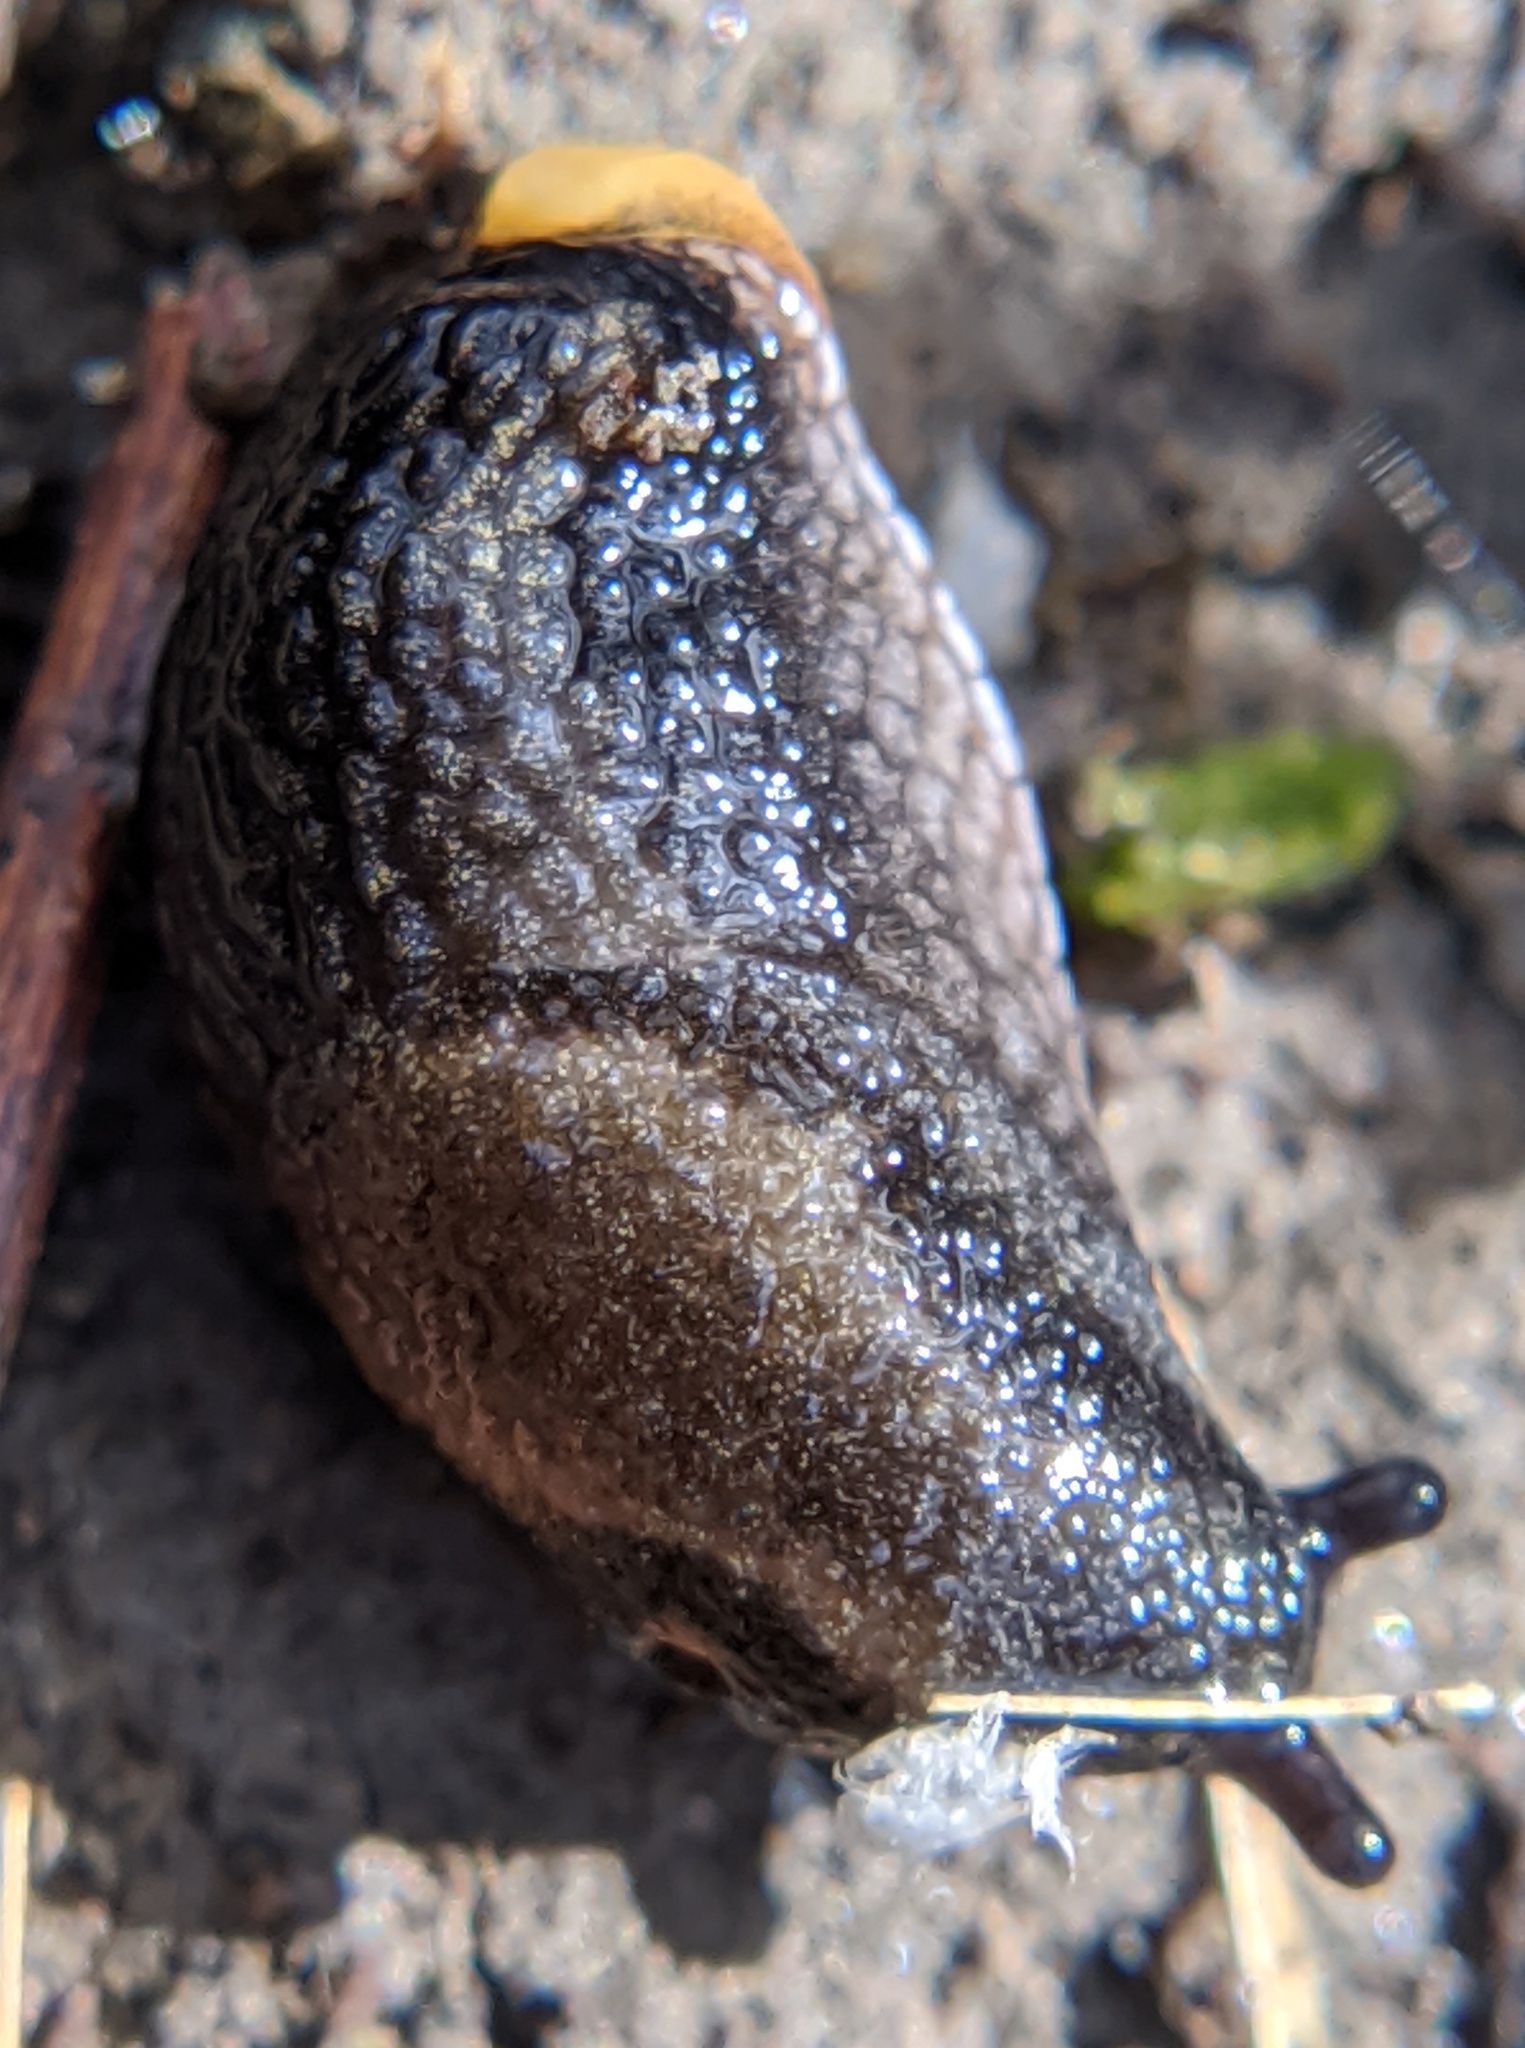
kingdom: Animalia
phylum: Mollusca
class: Gastropoda
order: Stylommatophora
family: Arionidae
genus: Arion
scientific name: Arion hortensis
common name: Garden arion
